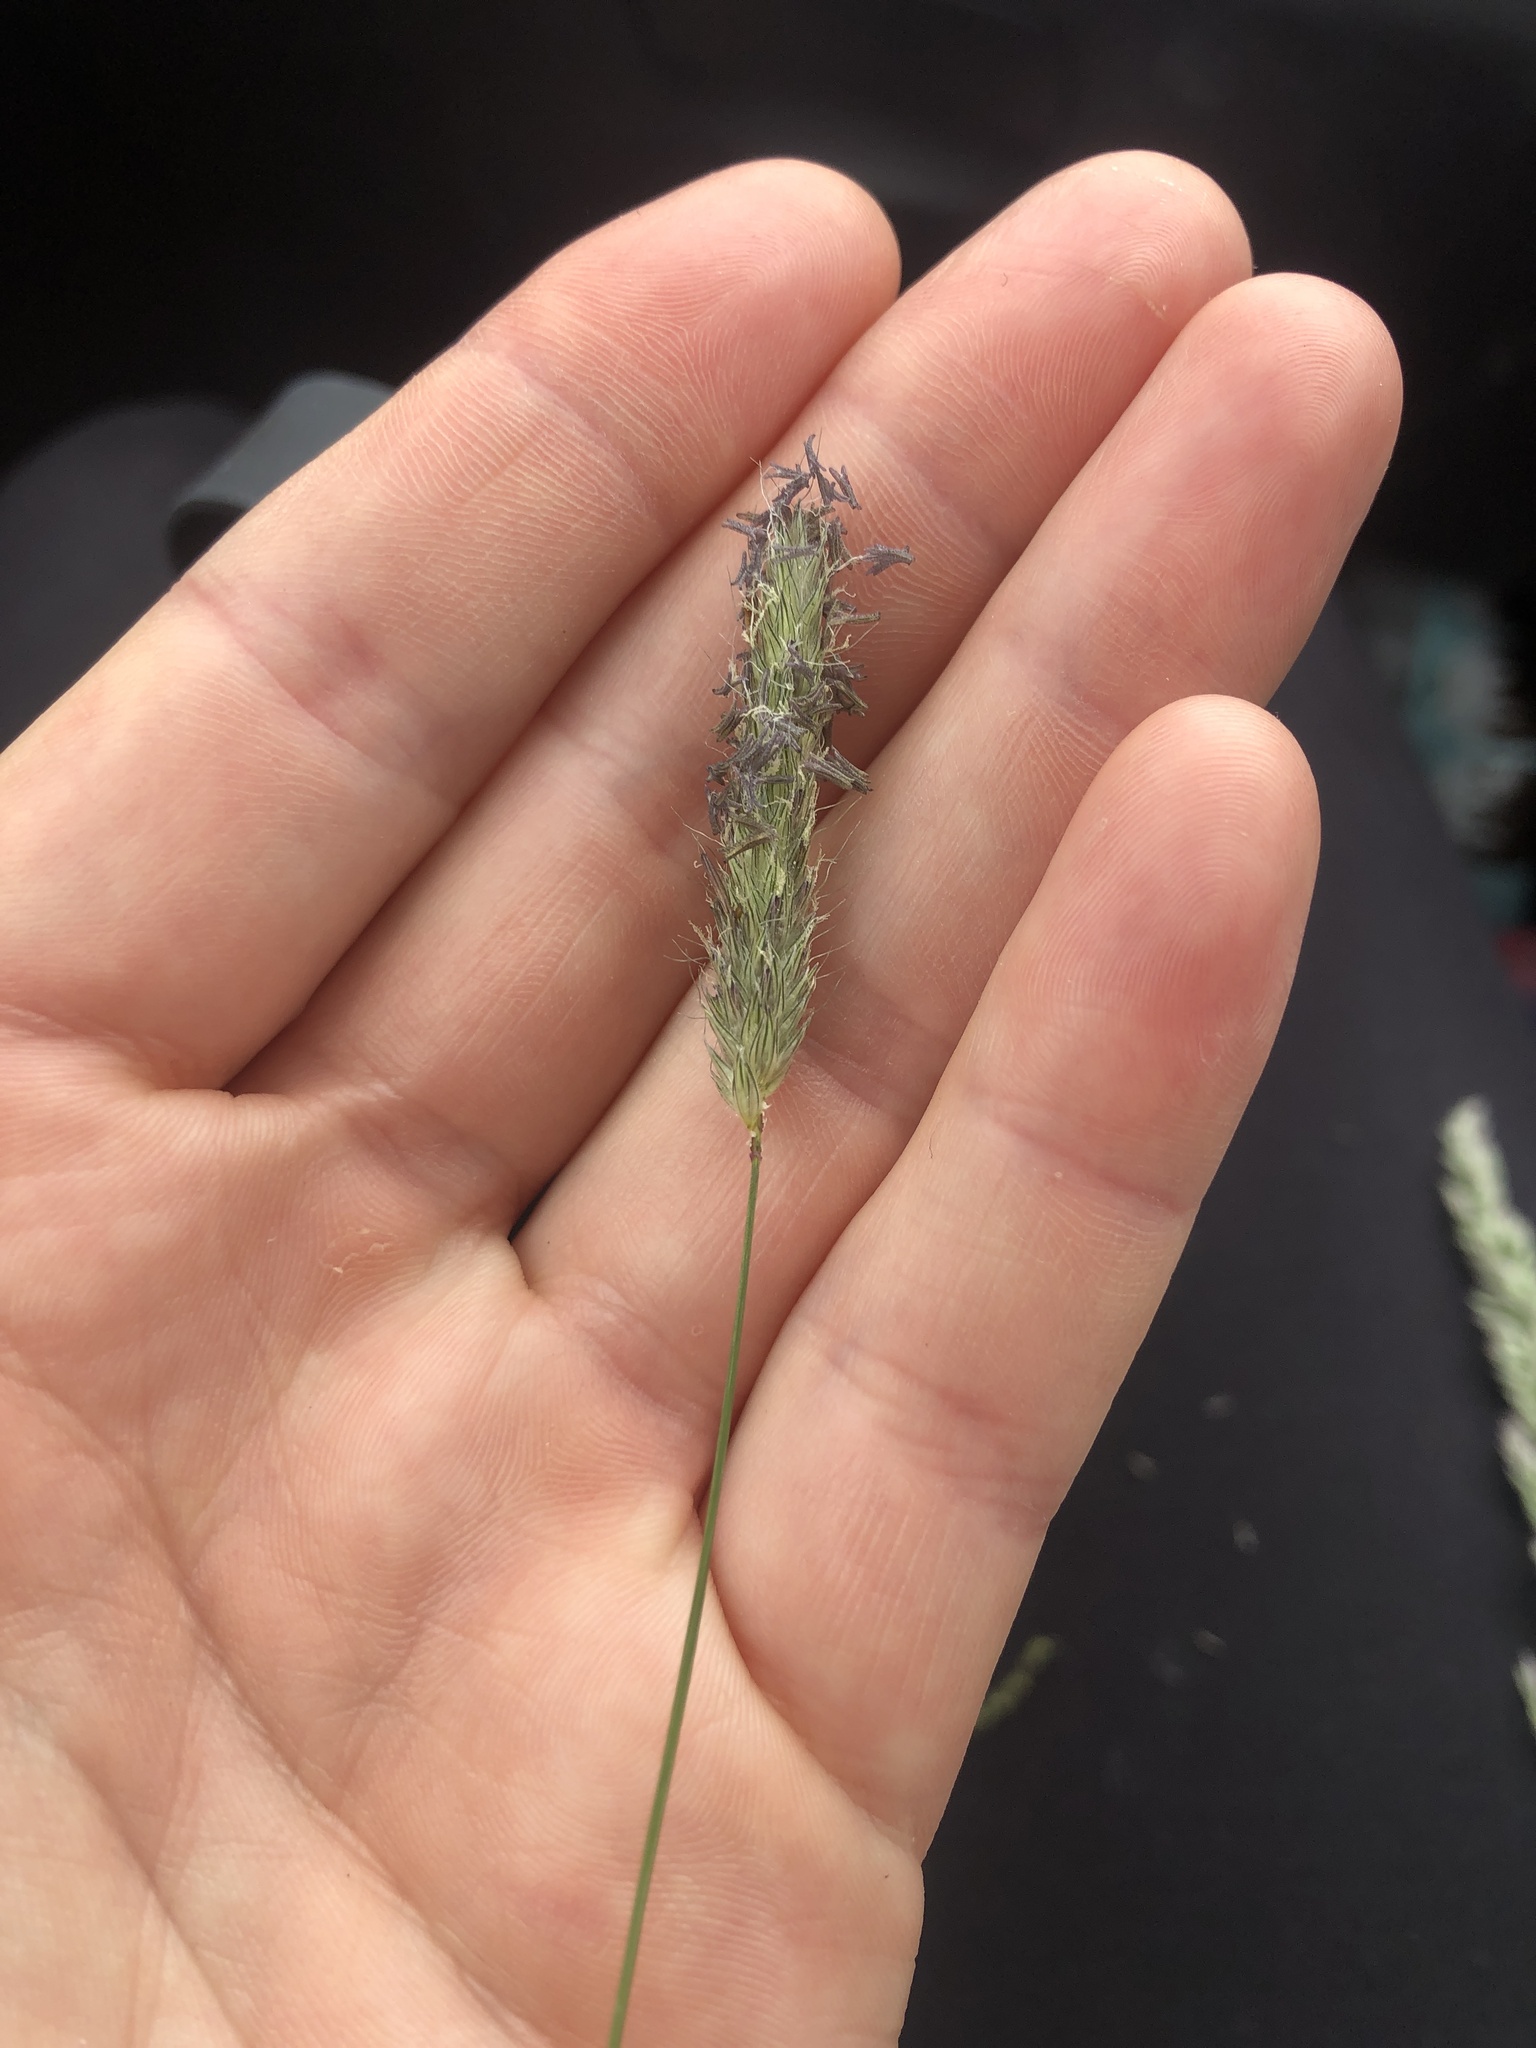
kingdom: Plantae
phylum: Tracheophyta
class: Liliopsida
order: Poales
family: Poaceae
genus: Alopecurus
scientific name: Alopecurus pratensis
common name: Meadow foxtail
